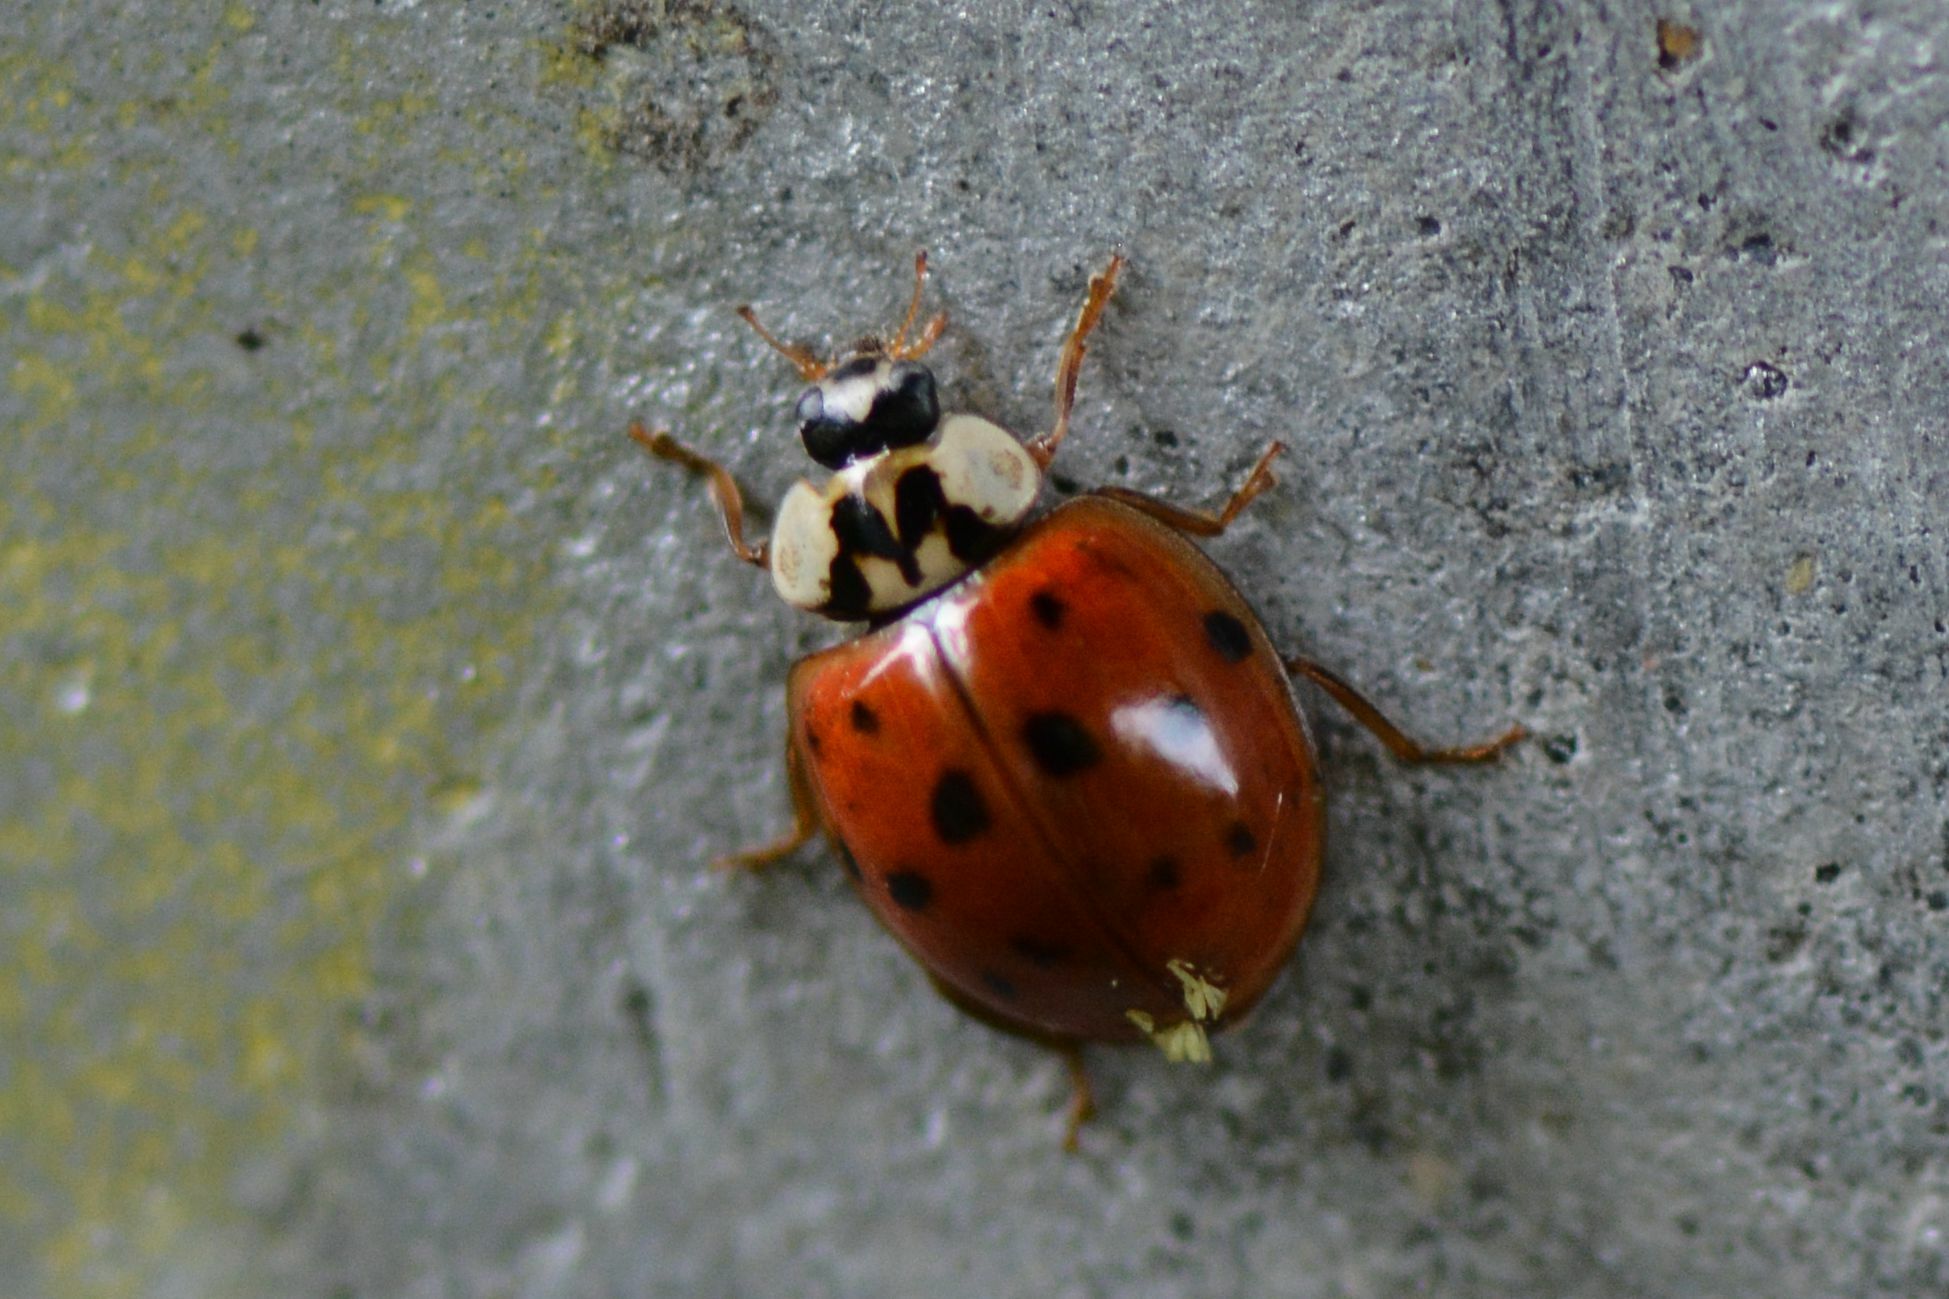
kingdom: Animalia
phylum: Arthropoda
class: Insecta
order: Coleoptera
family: Coccinellidae
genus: Harmonia
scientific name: Harmonia axyridis
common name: Harlequin ladybird
